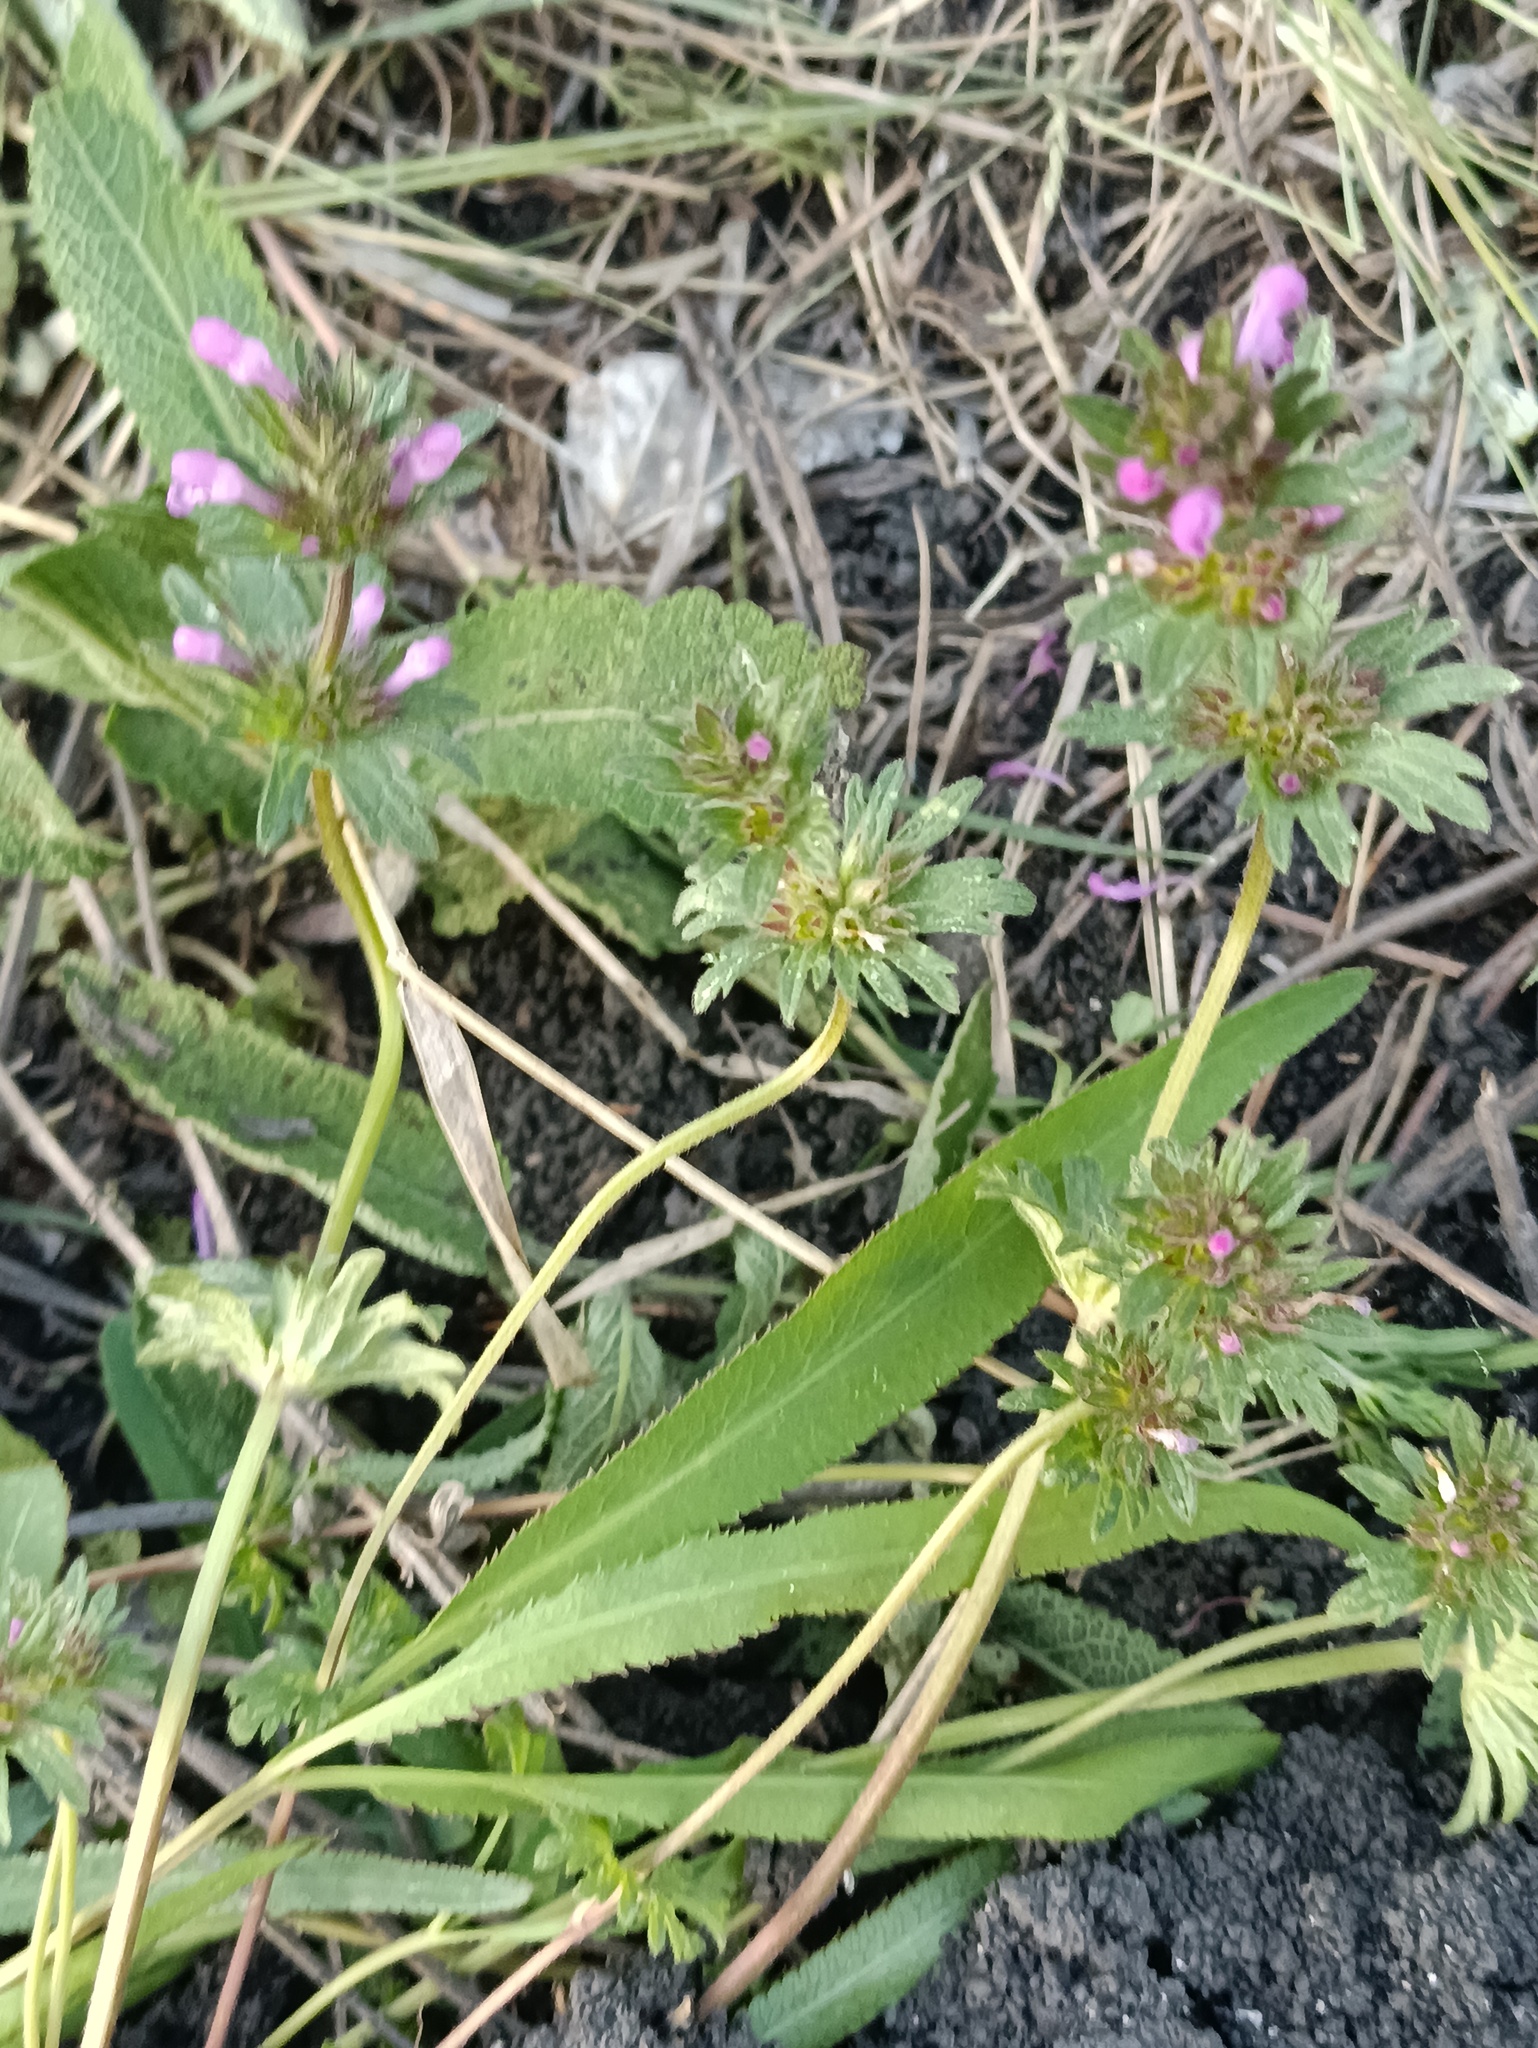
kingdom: Plantae
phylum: Tracheophyta
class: Magnoliopsida
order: Lamiales
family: Lamiaceae
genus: Lamium
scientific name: Lamium amplexicaule
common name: Henbit dead-nettle
